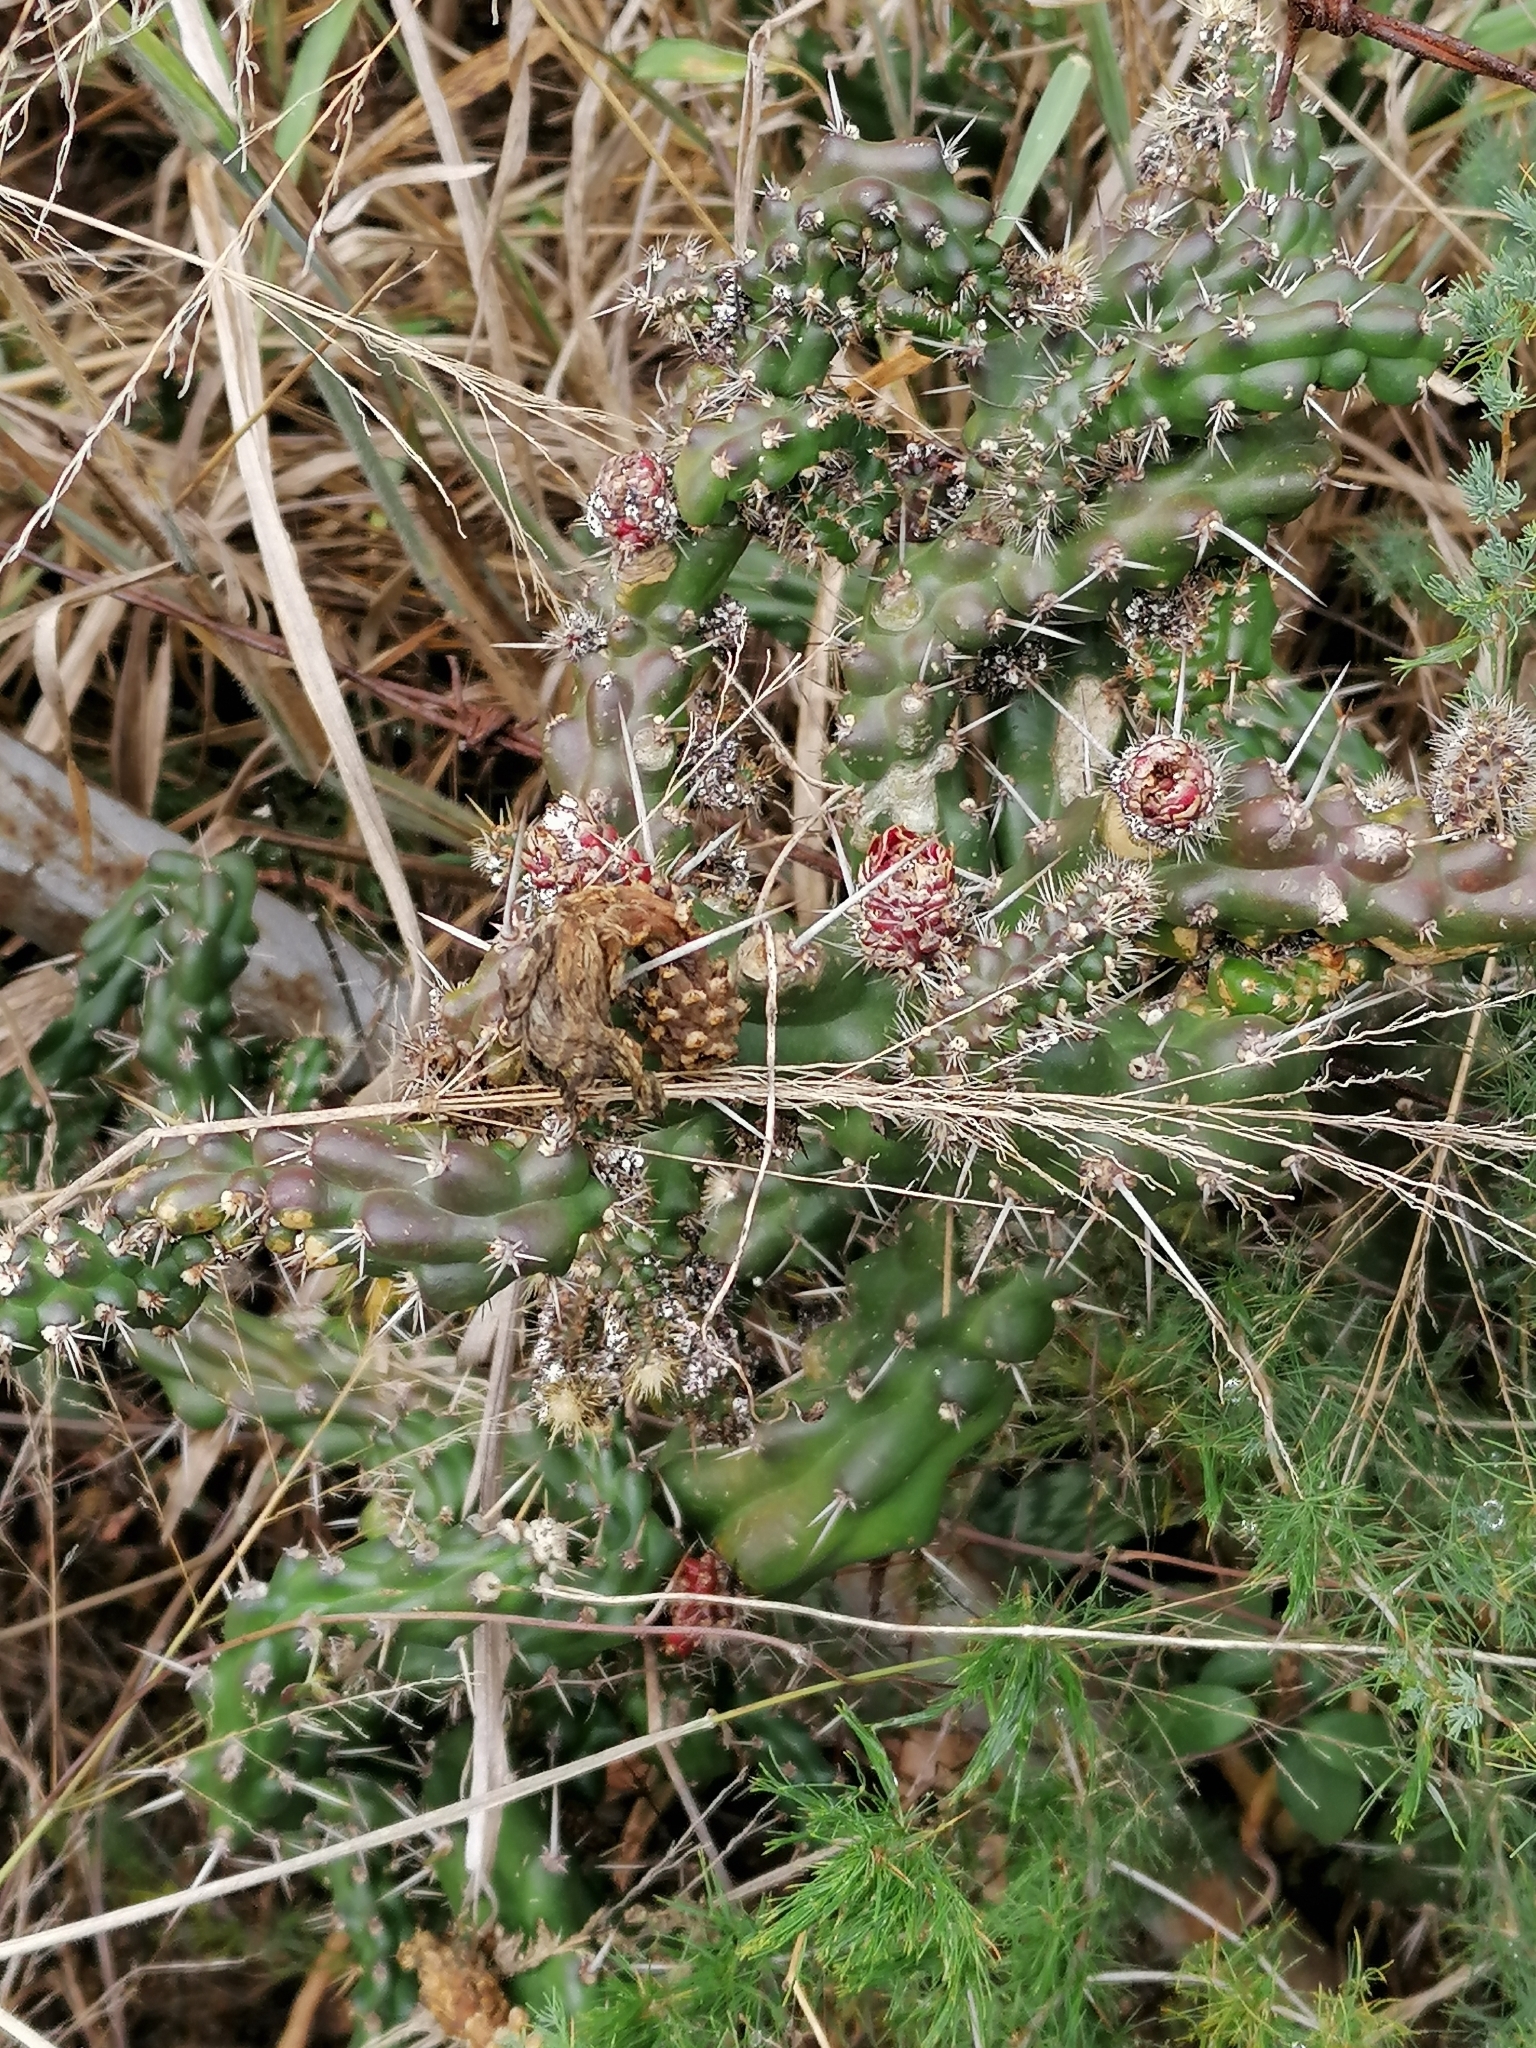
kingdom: Animalia
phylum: Arthropoda
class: Insecta
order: Hemiptera
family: Pseudococcidae
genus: Hypogeococcus
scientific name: Hypogeococcus festerianus
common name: Scale insect
